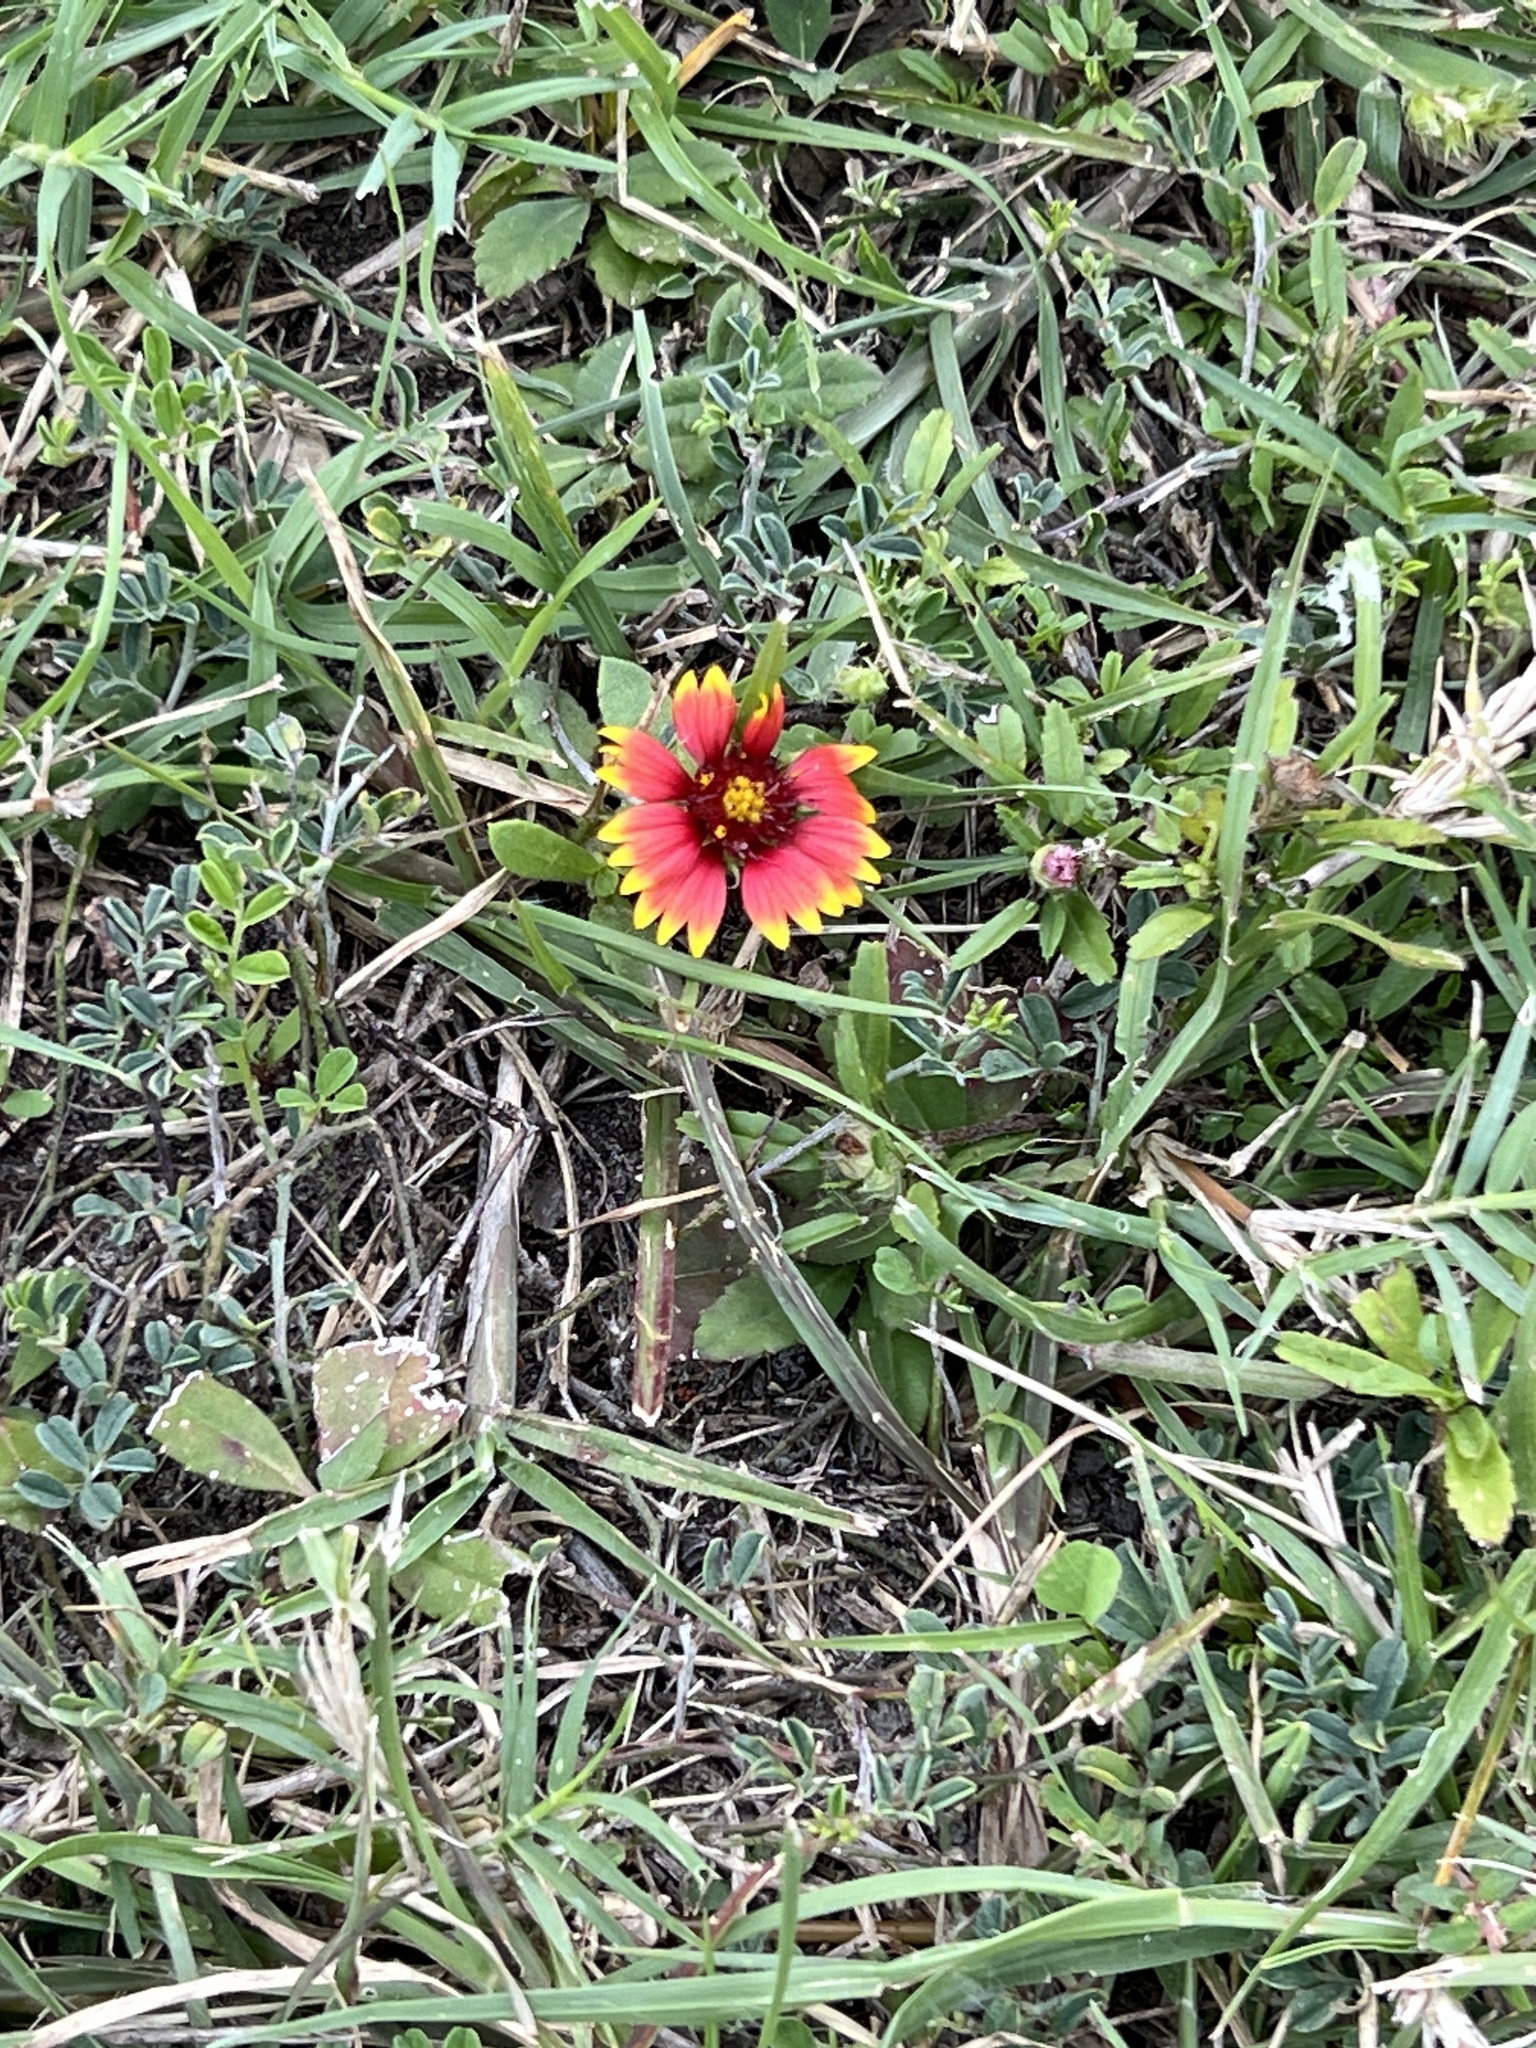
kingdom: Plantae
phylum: Tracheophyta
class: Magnoliopsida
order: Asterales
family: Asteraceae
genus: Gaillardia
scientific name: Gaillardia pulchella
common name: Firewheel
